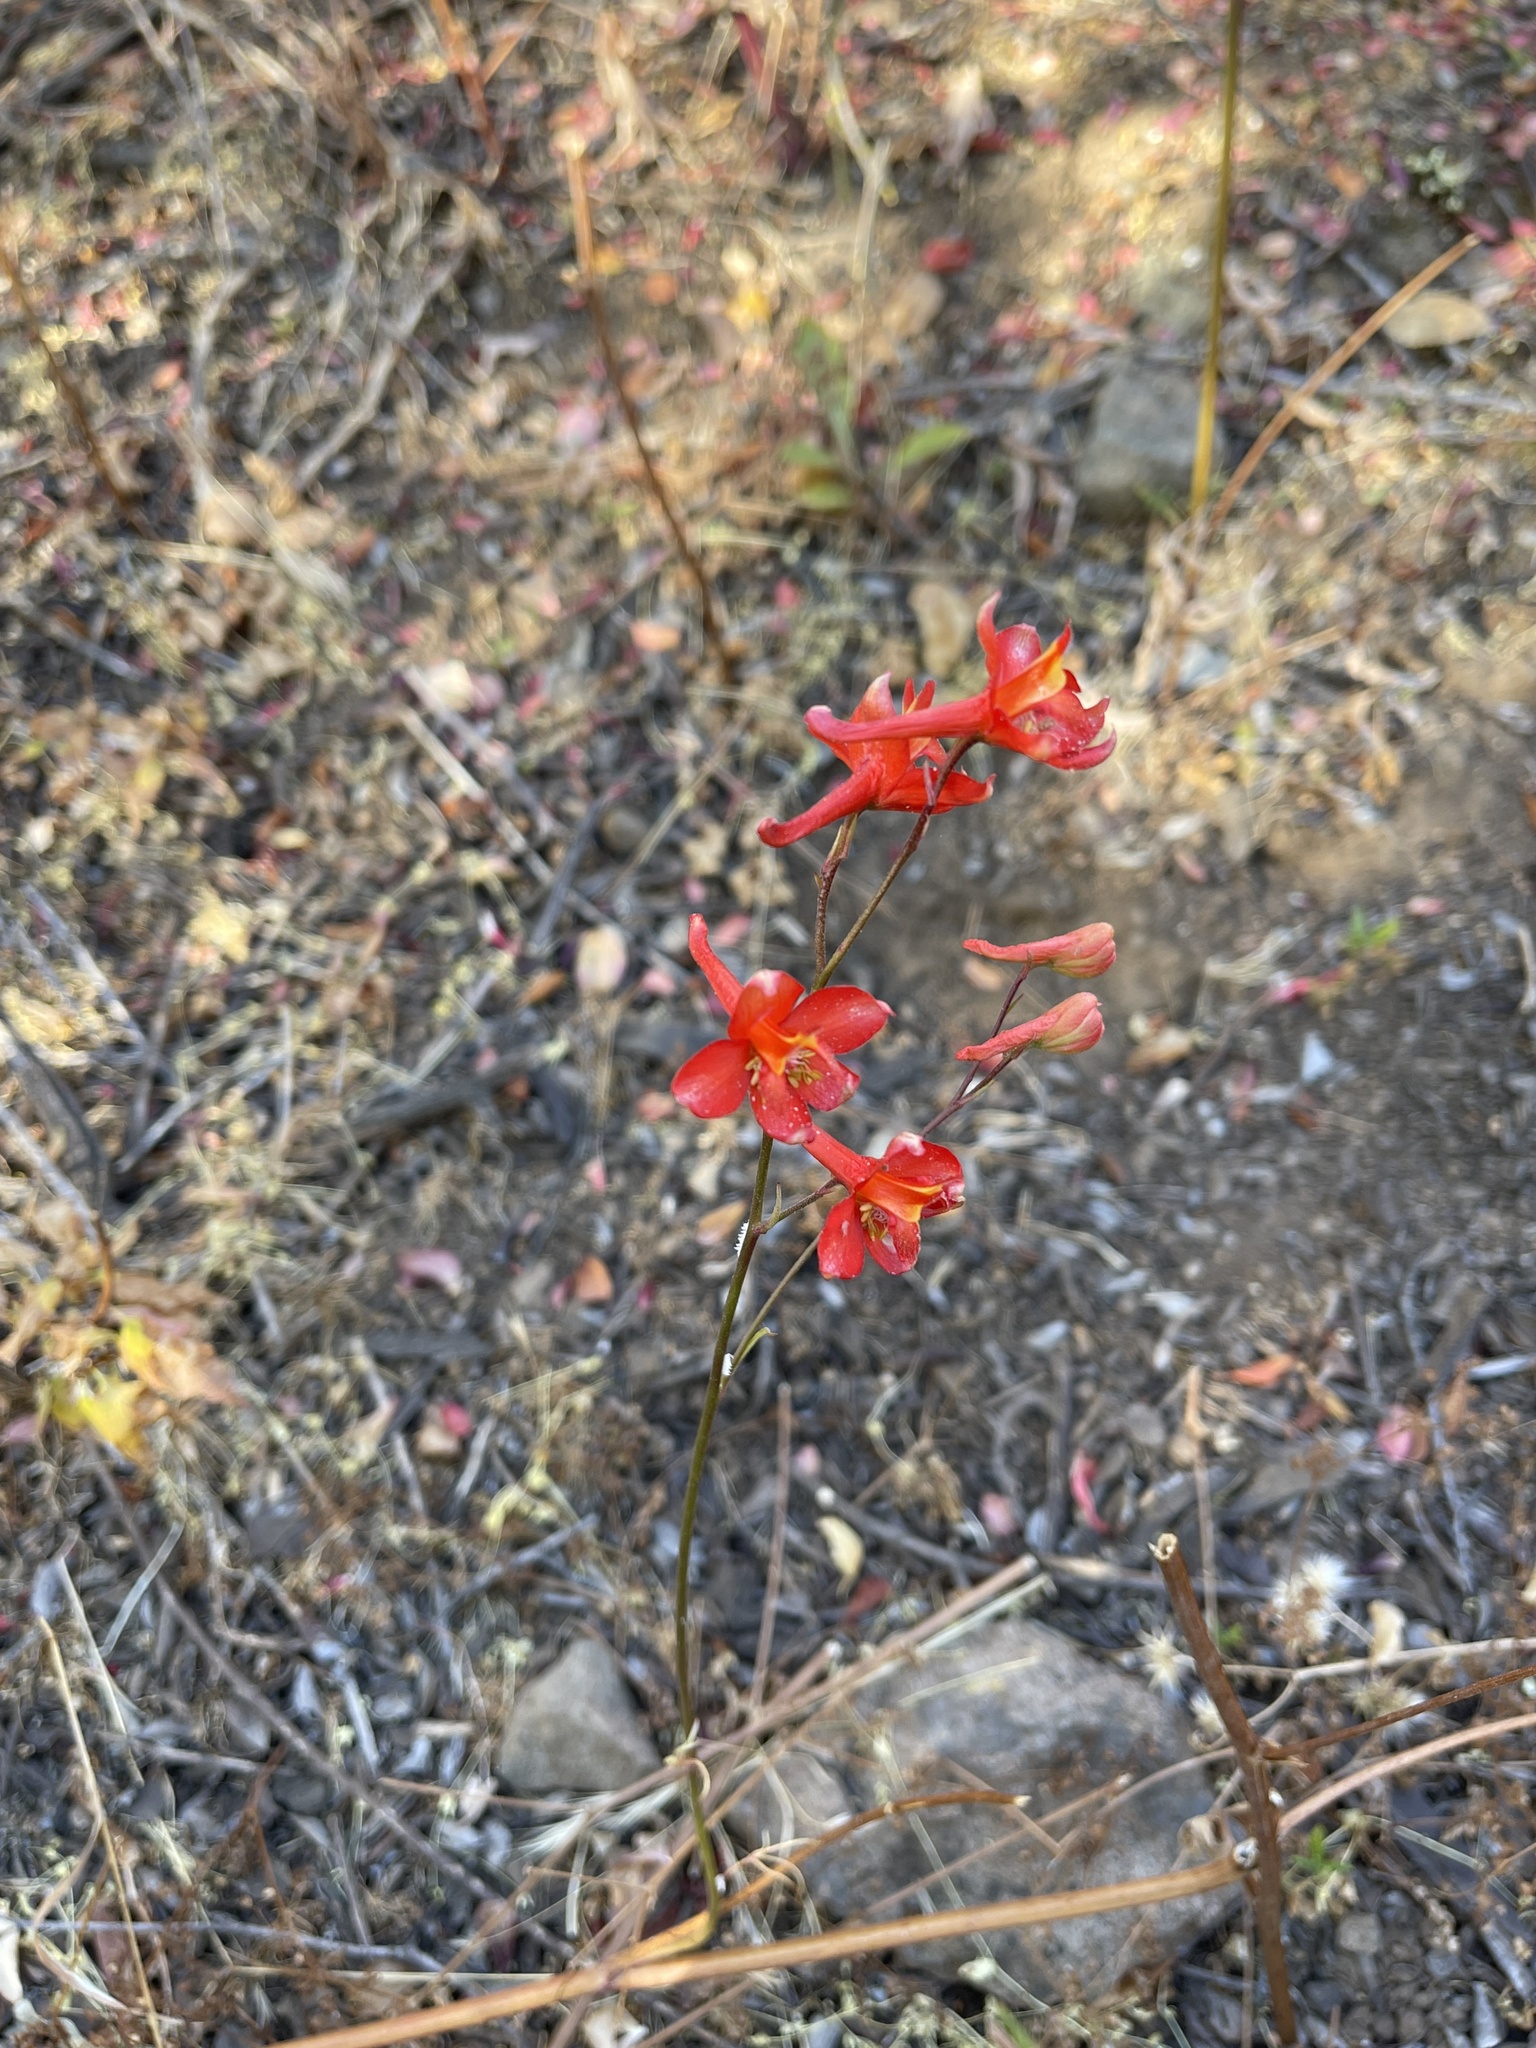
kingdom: Plantae
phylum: Tracheophyta
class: Magnoliopsida
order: Ranunculales
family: Ranunculaceae
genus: Delphinium
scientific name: Delphinium cardinale
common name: Scarlet larkspur
